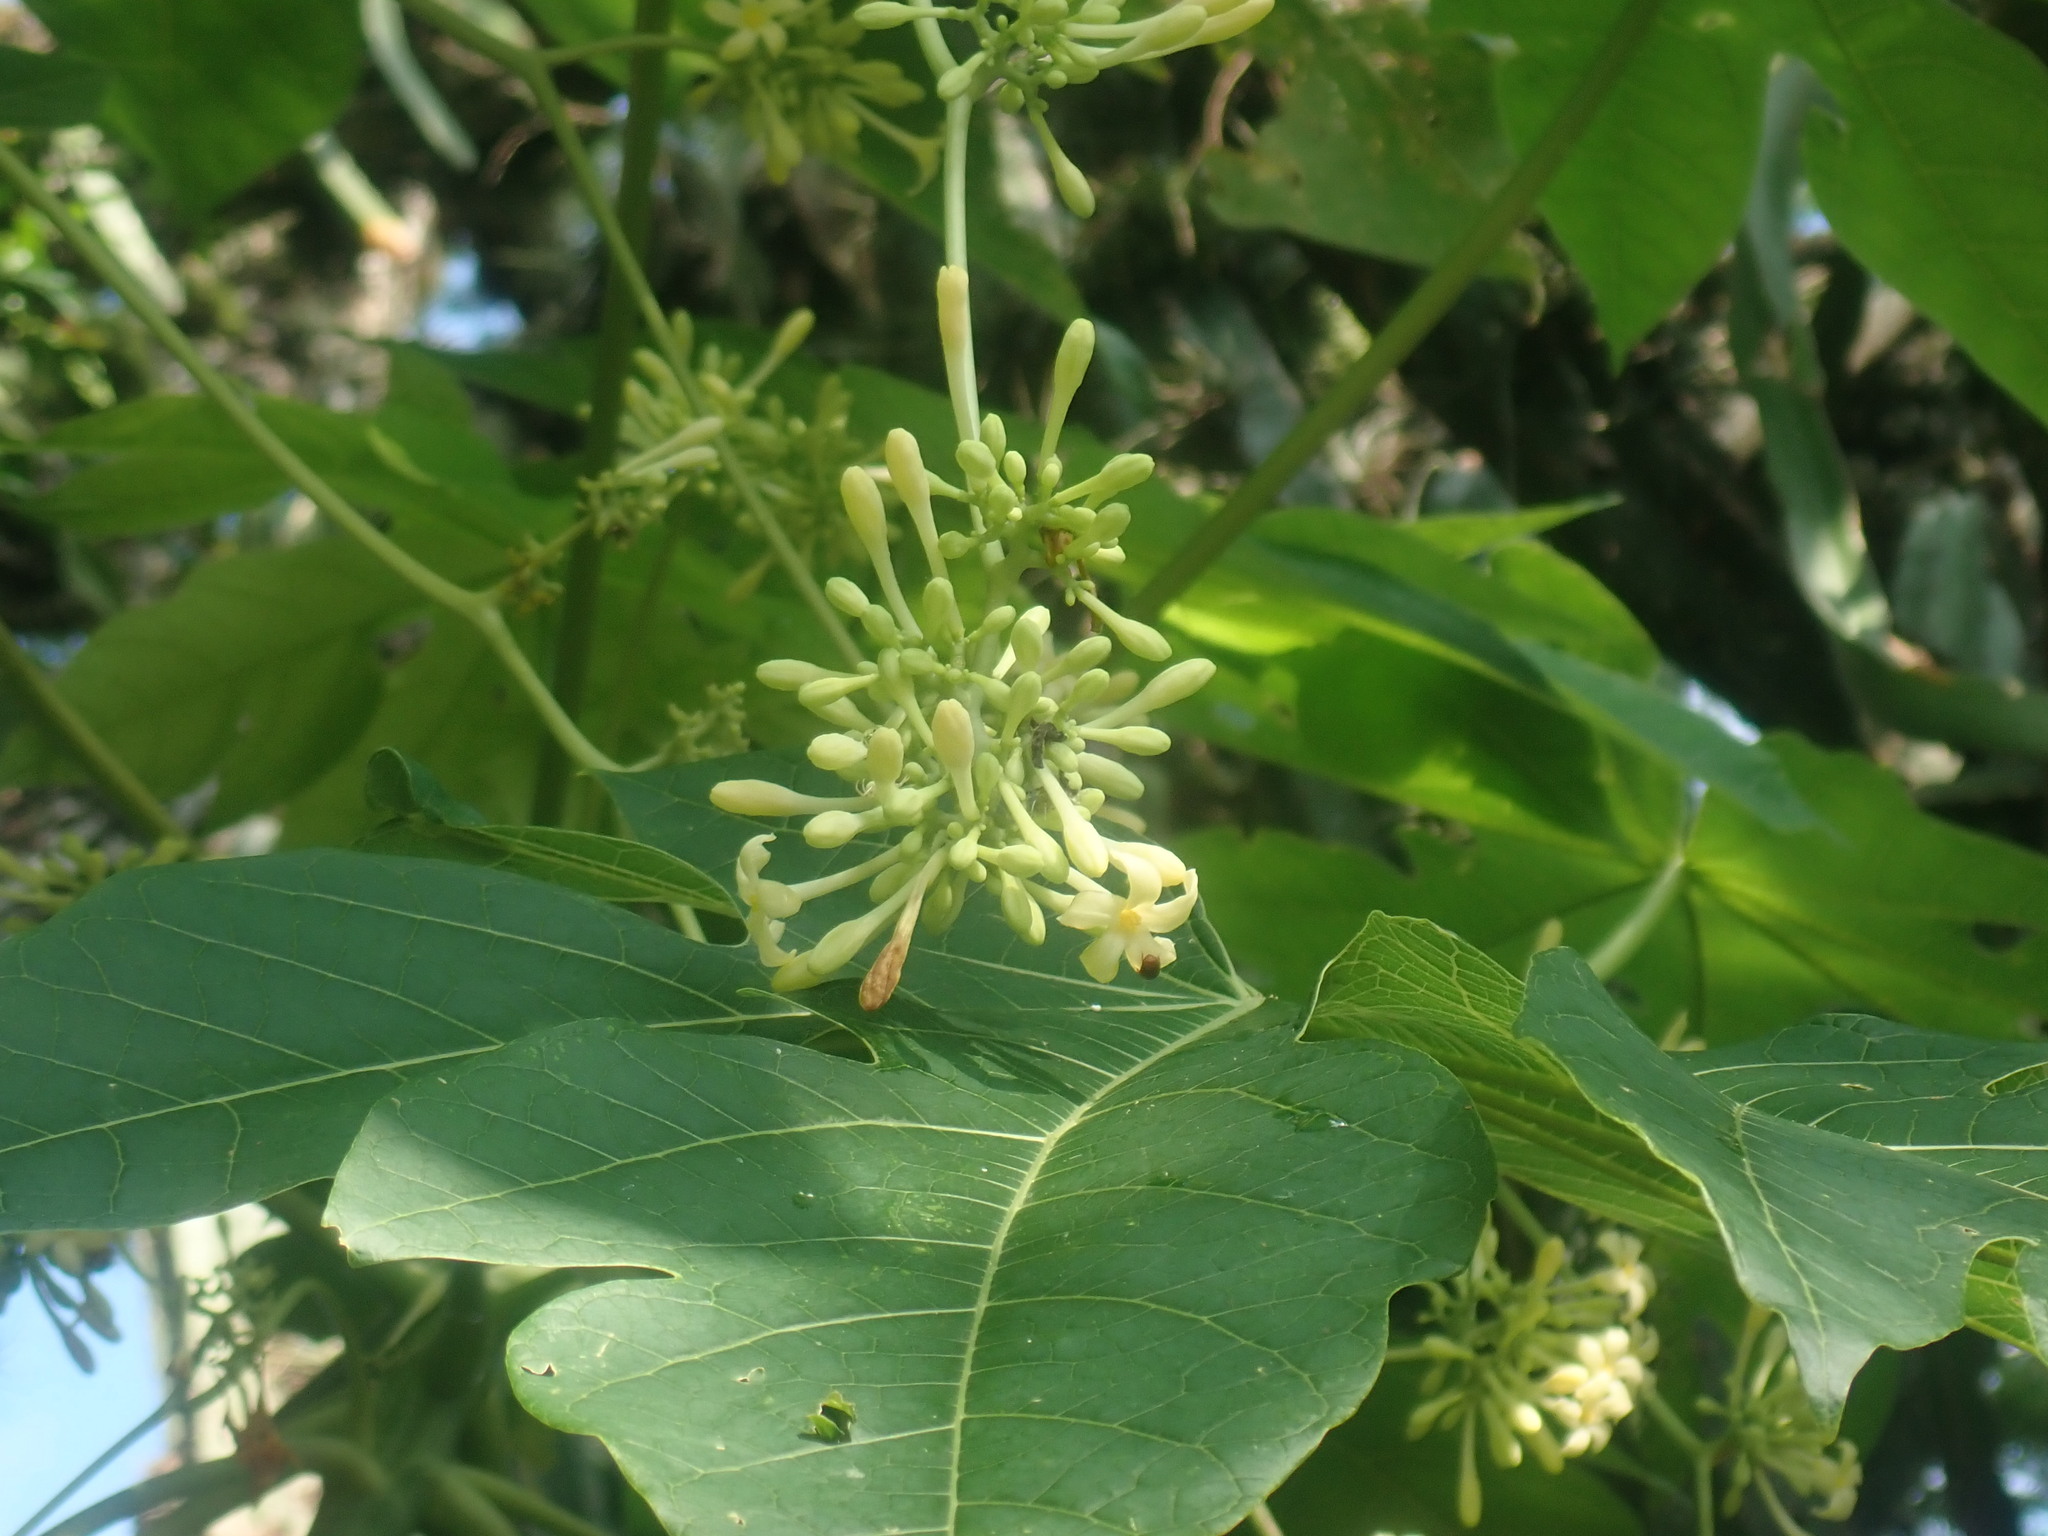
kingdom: Plantae
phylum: Tracheophyta
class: Magnoliopsida
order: Brassicales
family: Caricaceae
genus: Carica
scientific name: Carica papaya
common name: Papaya
